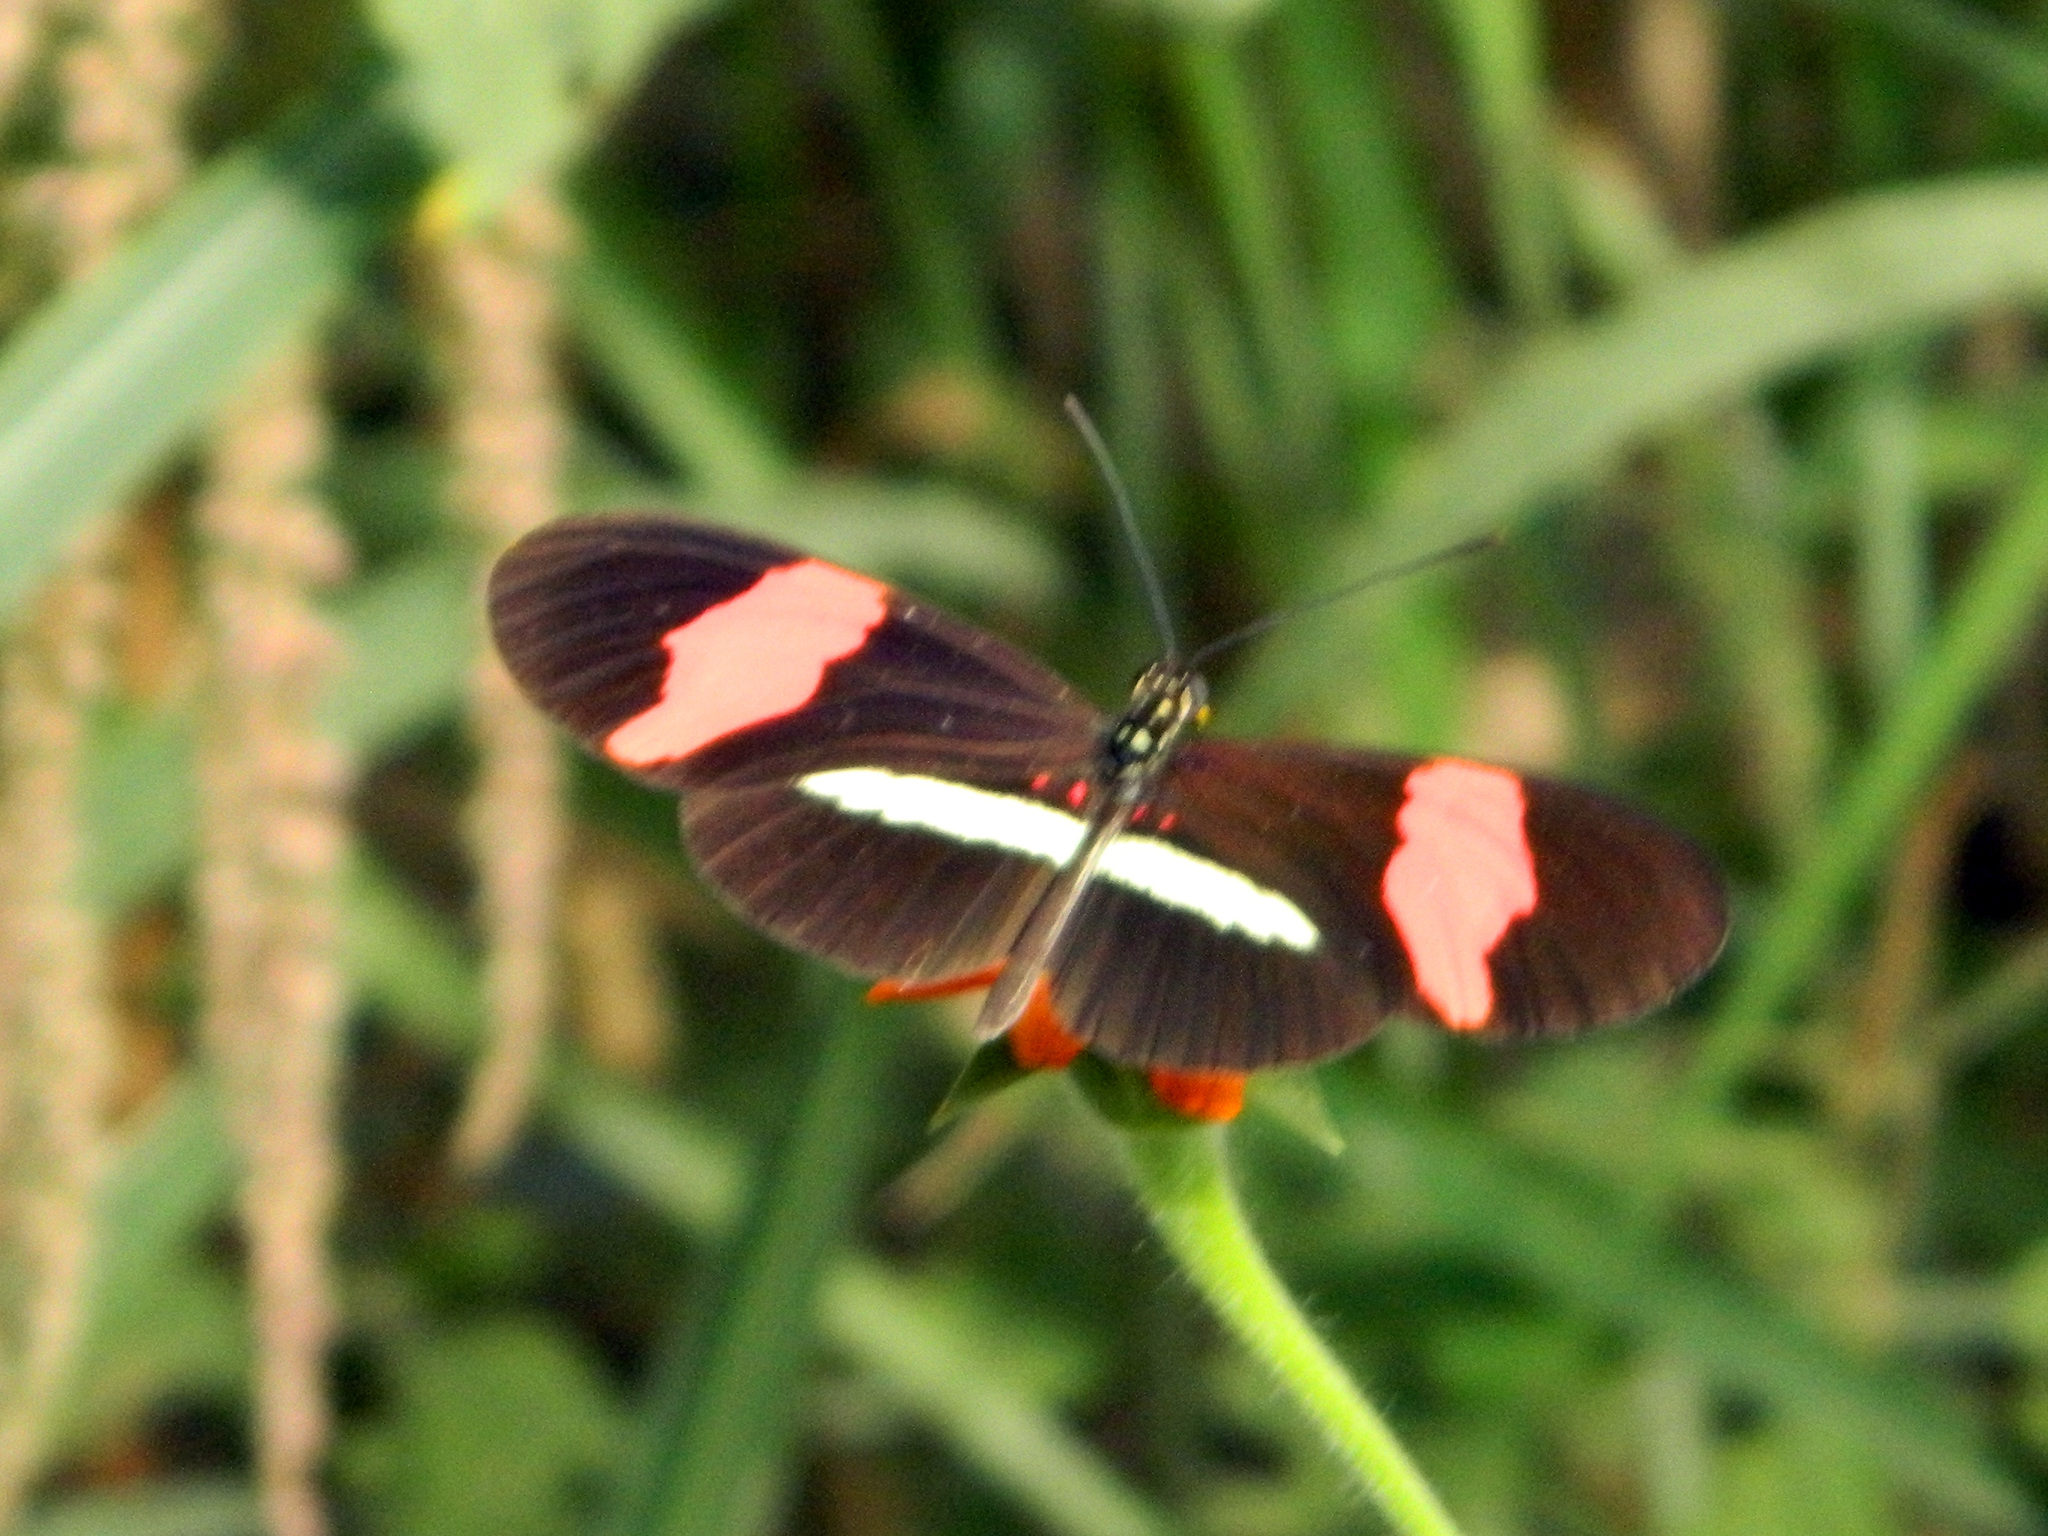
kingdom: Animalia
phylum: Arthropoda
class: Insecta
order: Lepidoptera
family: Nymphalidae
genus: Heliconius
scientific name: Heliconius erato
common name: Common patch longwing
